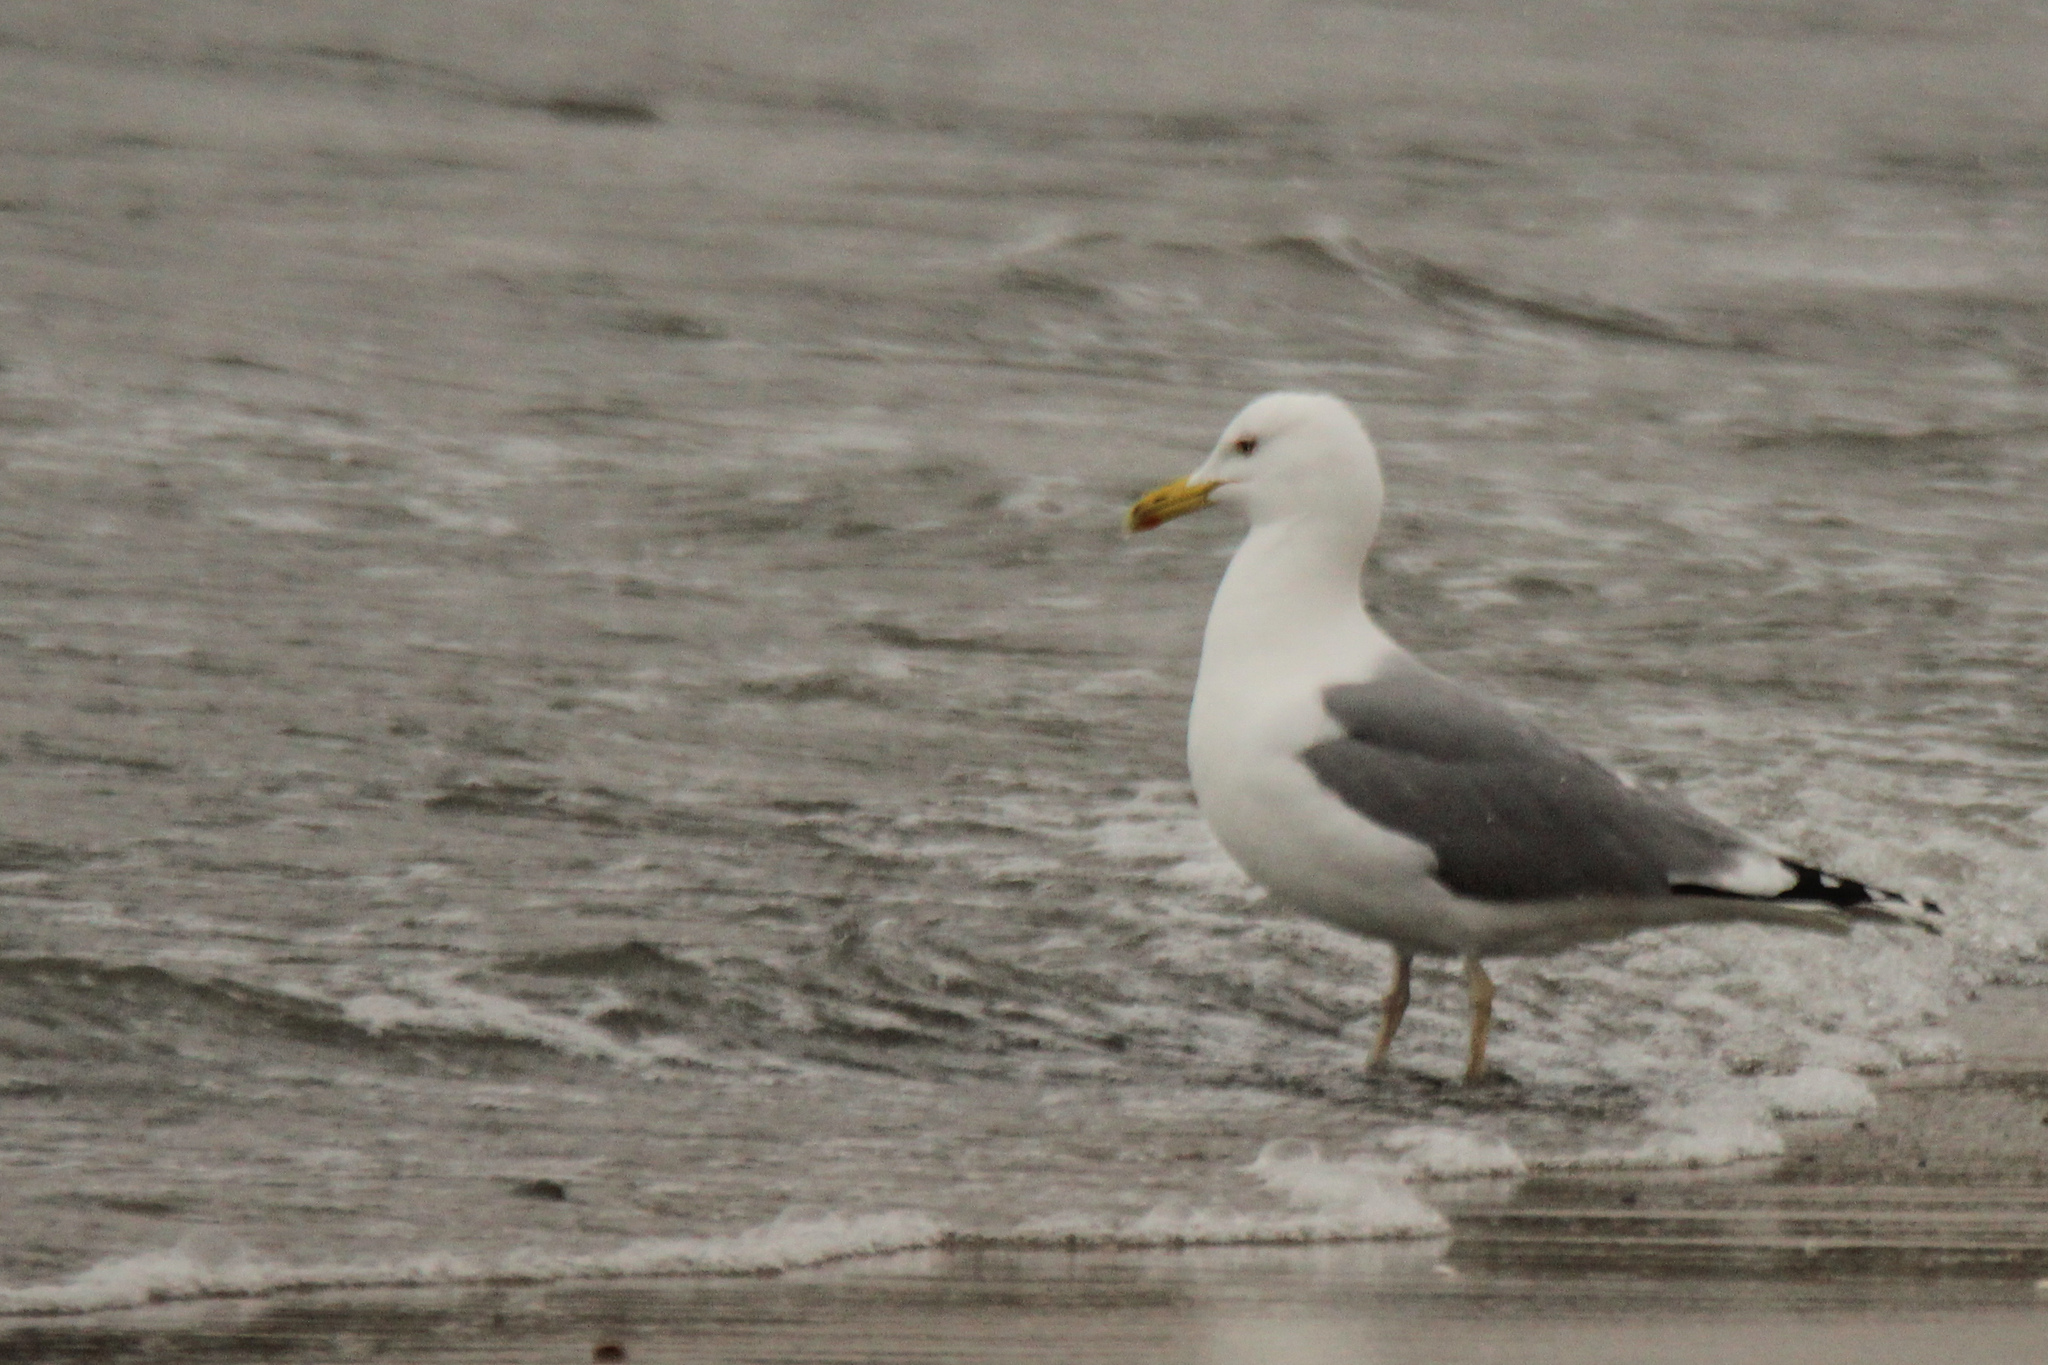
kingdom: Animalia
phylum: Chordata
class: Aves
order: Charadriiformes
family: Laridae
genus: Larus
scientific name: Larus cachinnans
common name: Caspian gull
